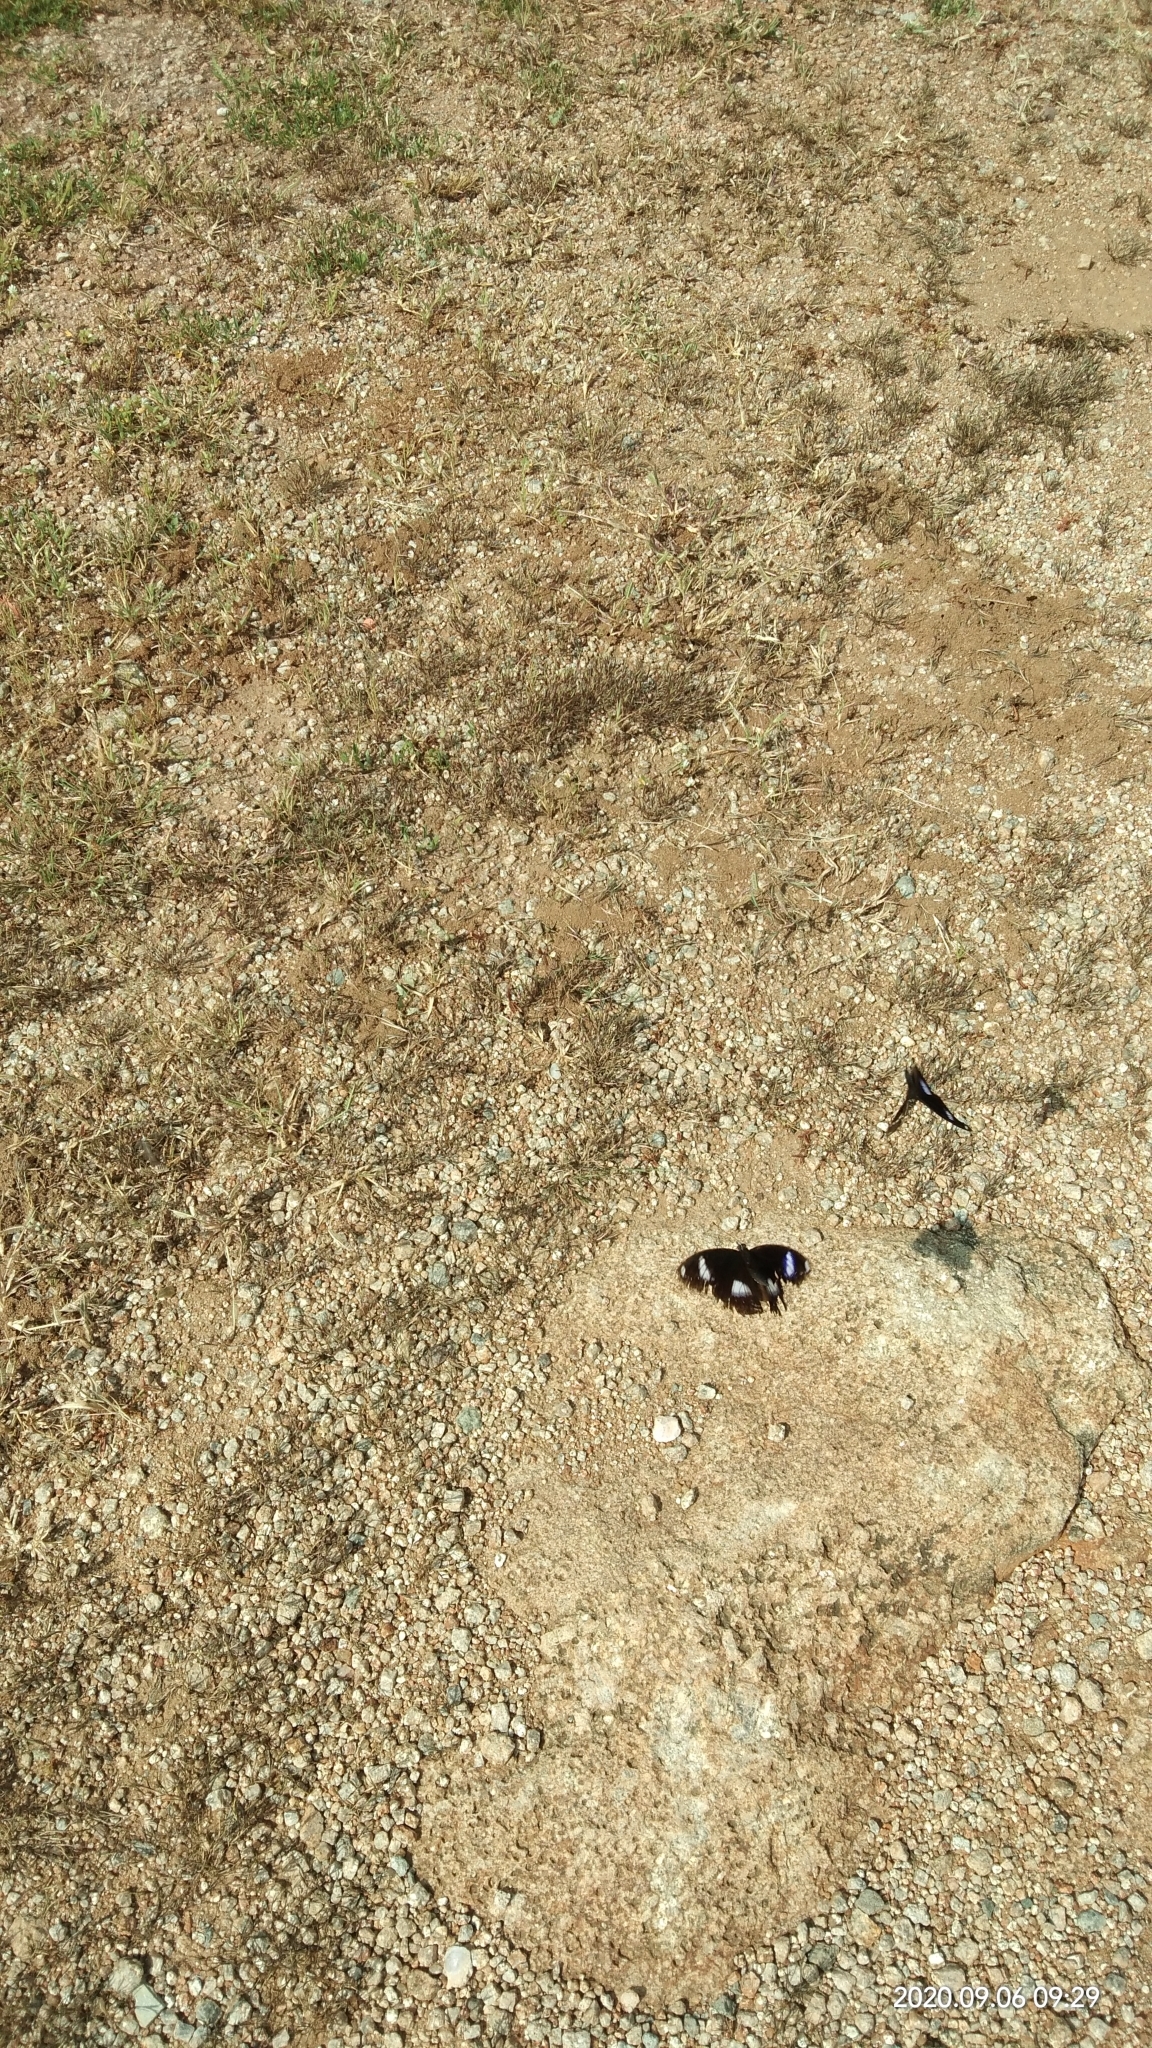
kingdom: Animalia
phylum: Arthropoda
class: Insecta
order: Lepidoptera
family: Nymphalidae
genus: Hypolimnas
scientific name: Hypolimnas bolina
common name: Great eggfly
